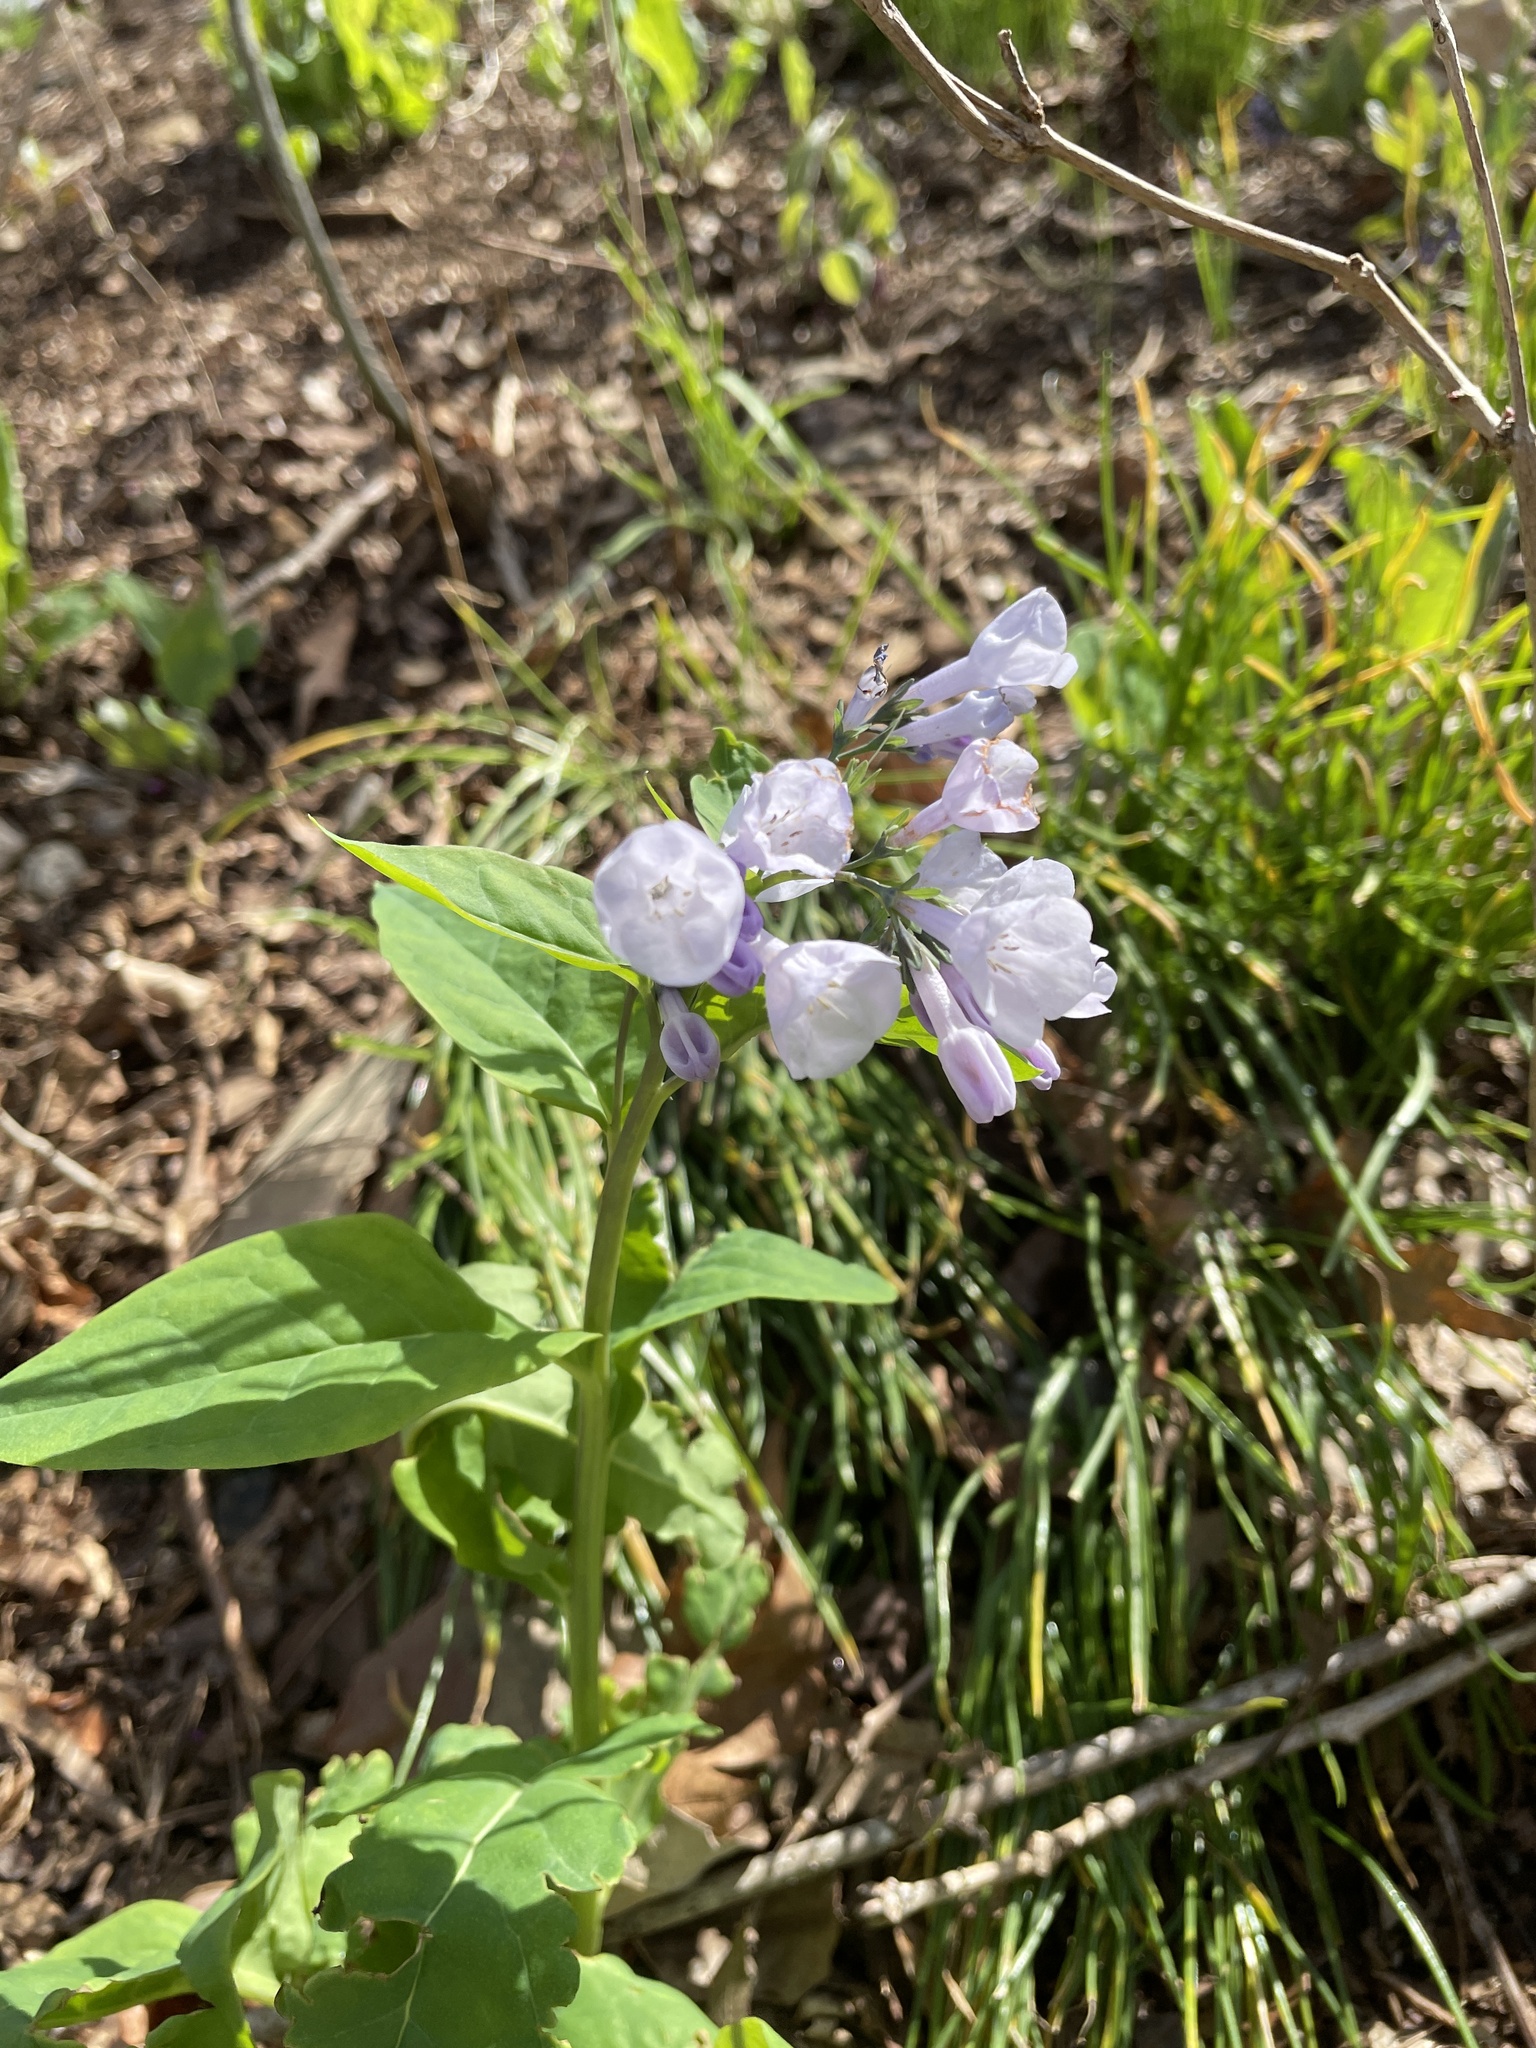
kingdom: Plantae
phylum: Tracheophyta
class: Magnoliopsida
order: Boraginales
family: Boraginaceae
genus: Mertensia
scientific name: Mertensia virginica
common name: Virginia bluebells
